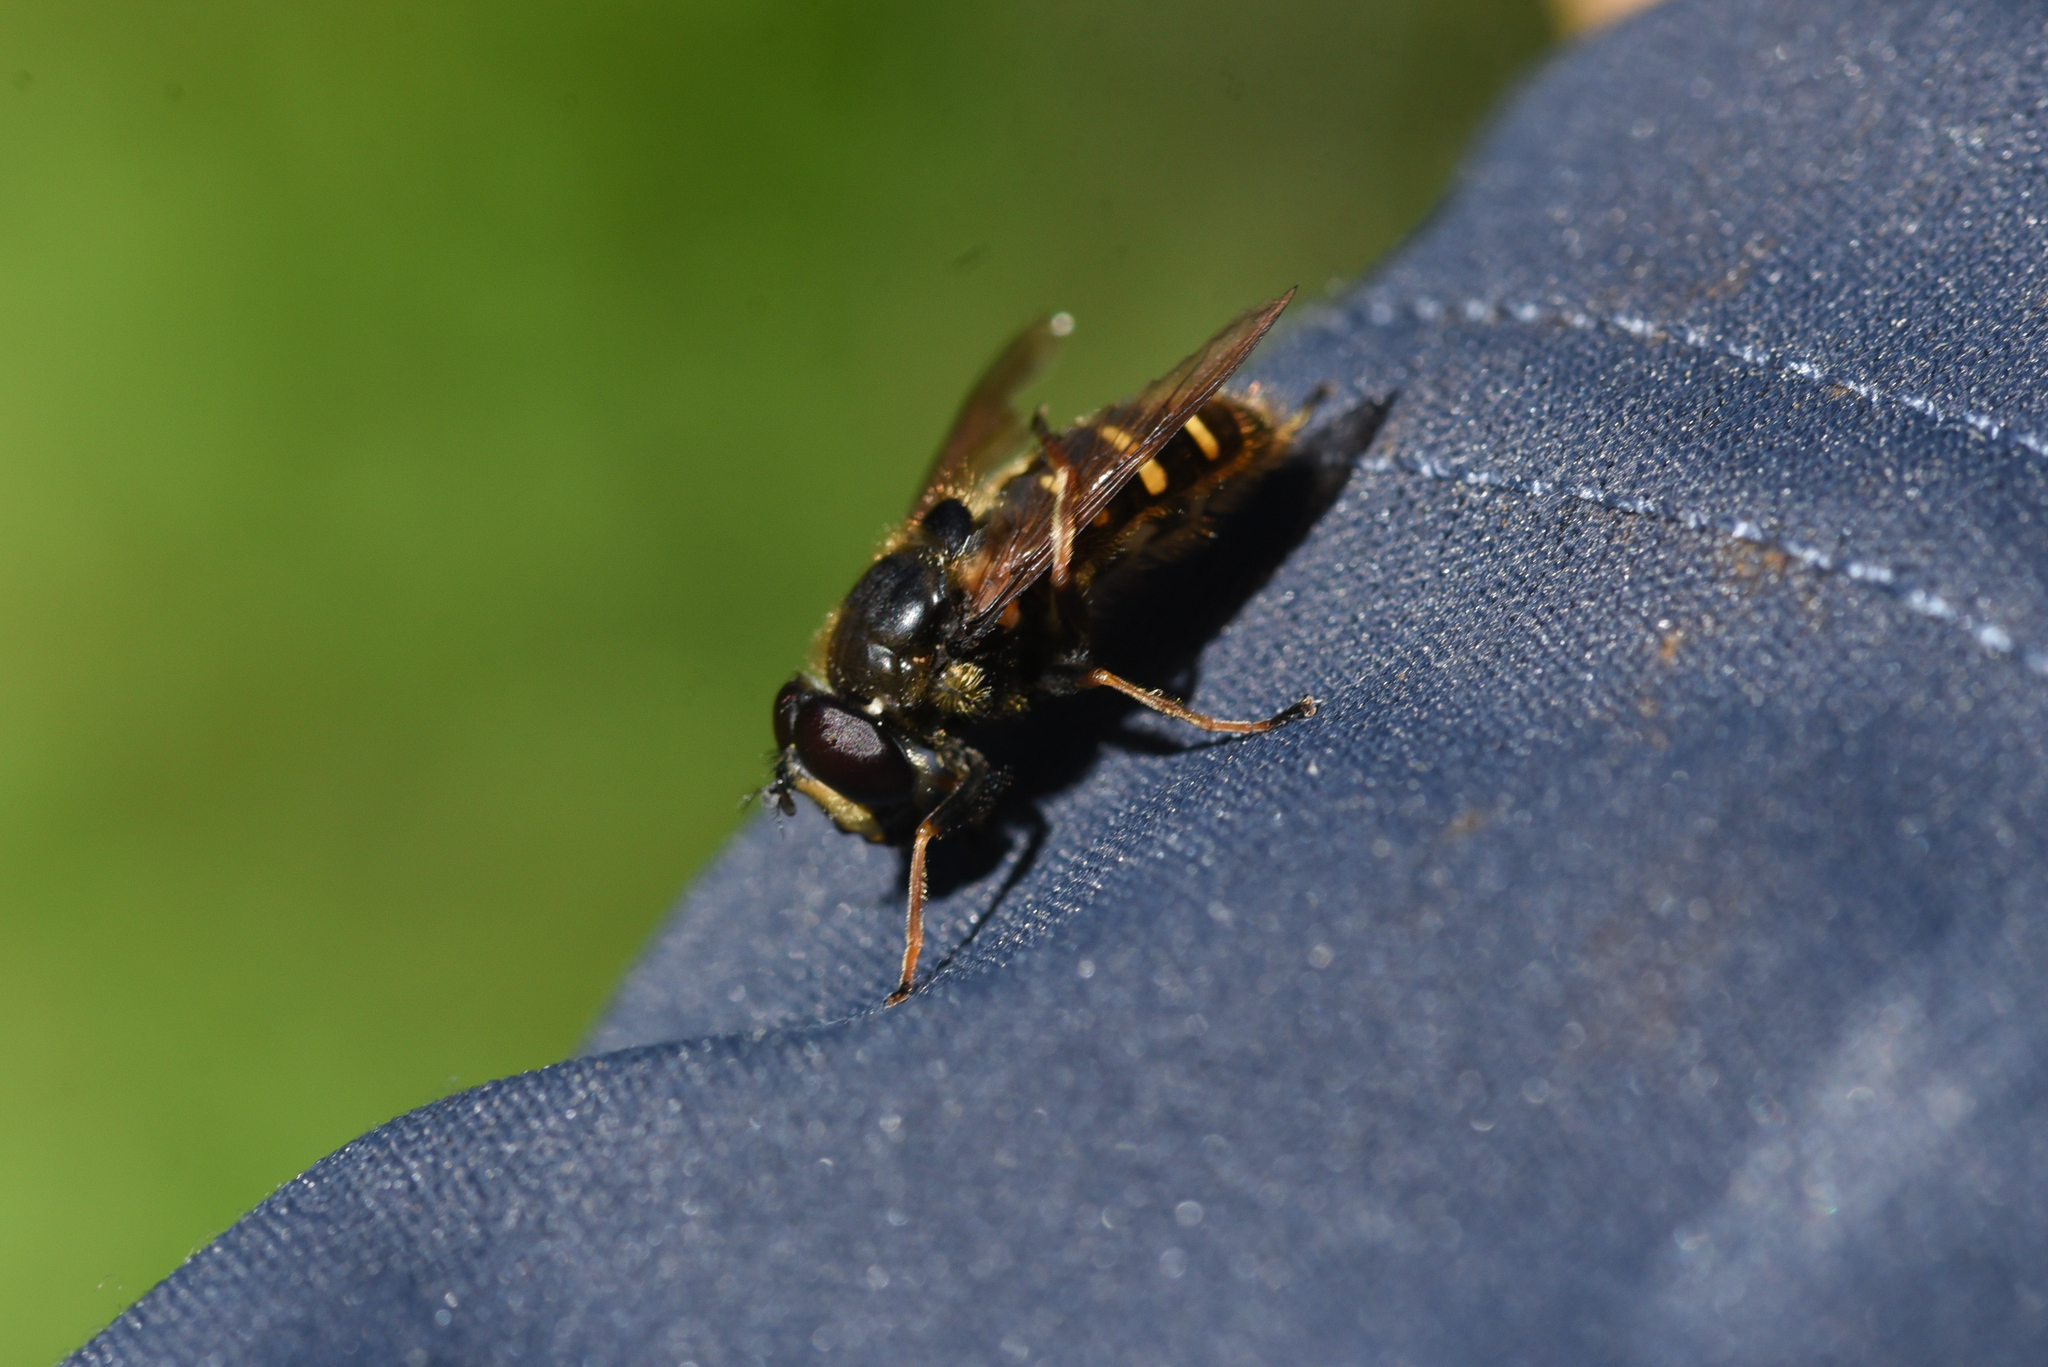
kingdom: Animalia
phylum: Arthropoda
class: Insecta
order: Diptera
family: Syrphidae
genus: Sericomyia
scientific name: Sericomyia chalcopyga
